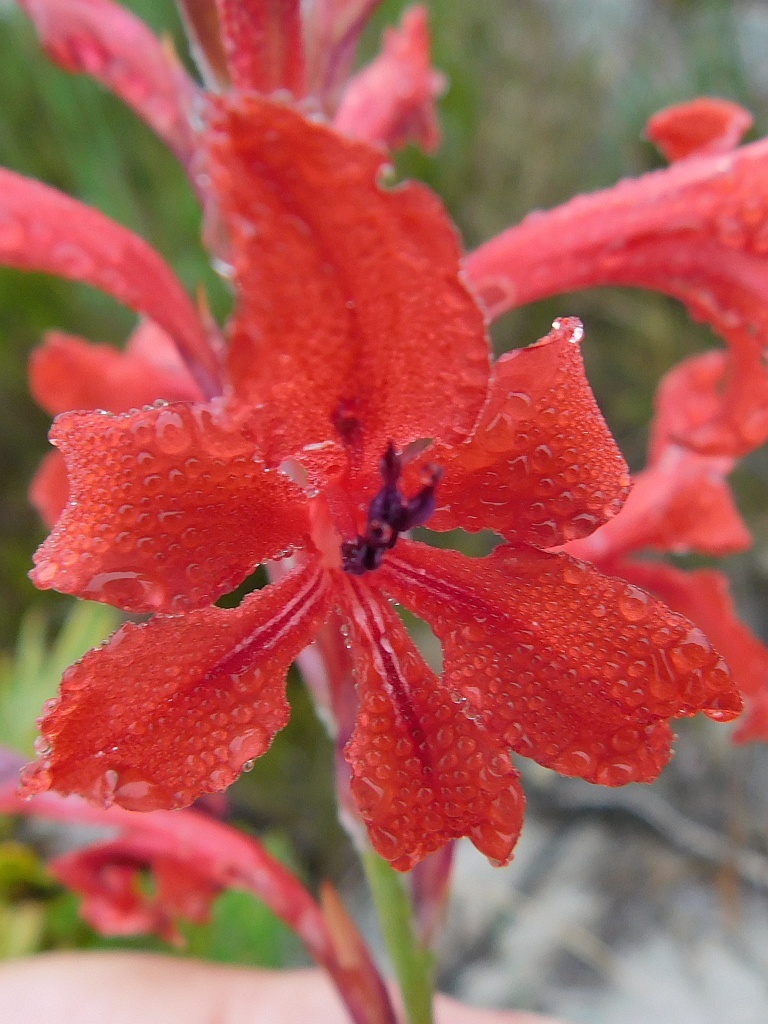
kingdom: Plantae
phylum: Tracheophyta
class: Liliopsida
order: Asparagales
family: Iridaceae
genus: Tritoniopsis
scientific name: Tritoniopsis pulchra
